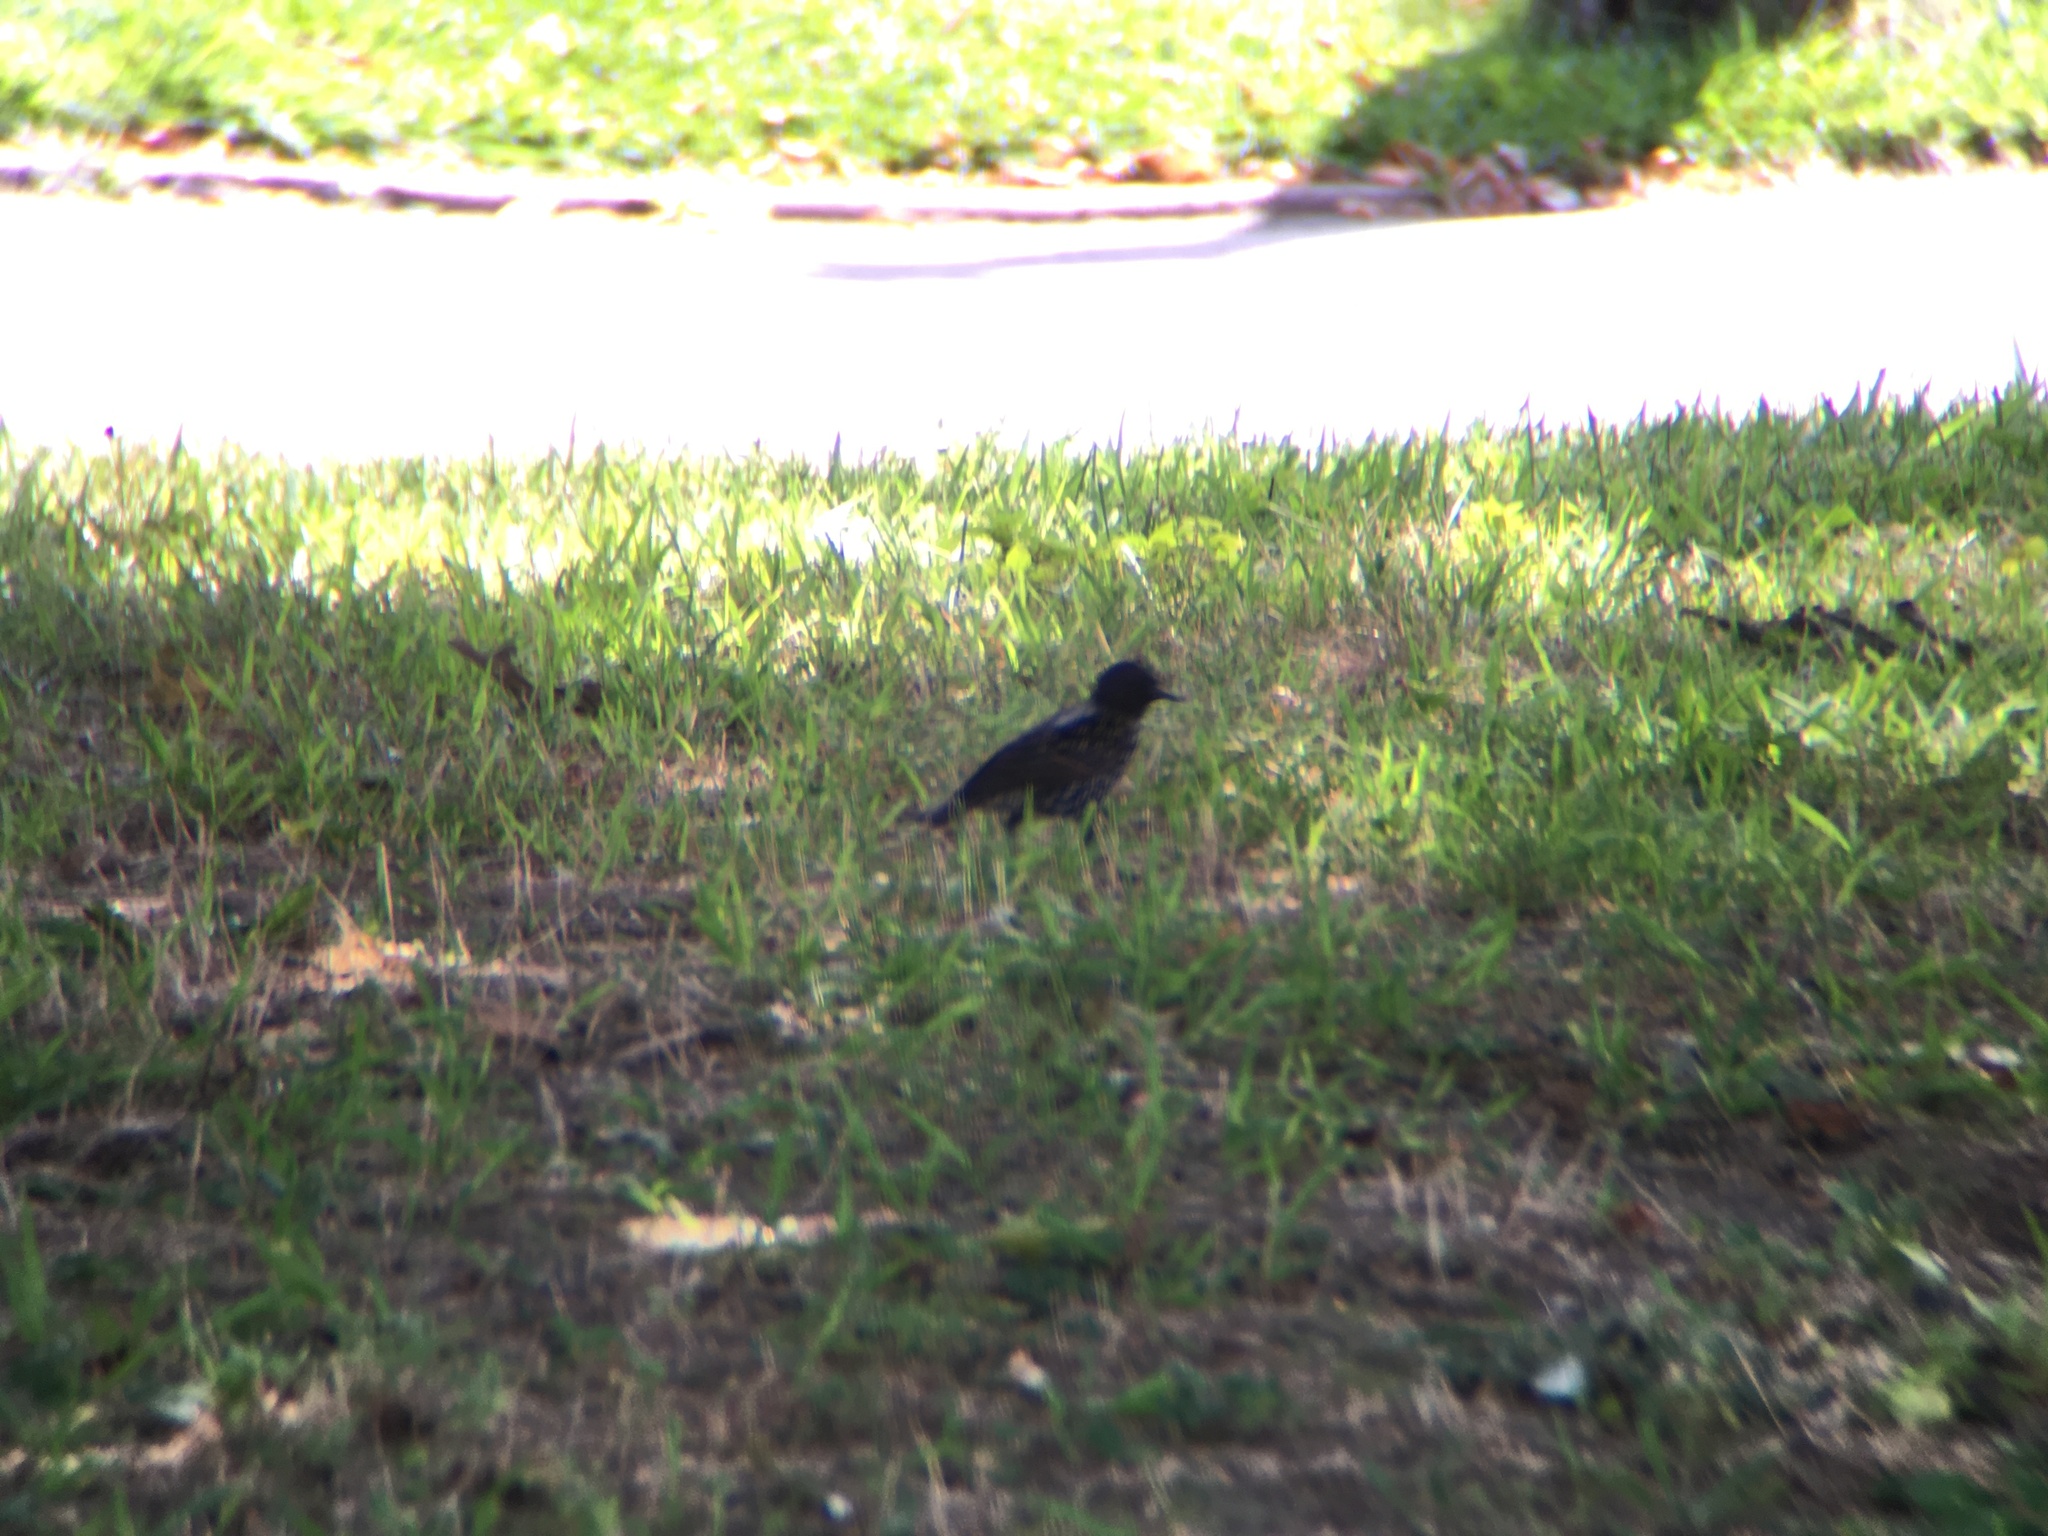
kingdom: Animalia
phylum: Chordata
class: Aves
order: Passeriformes
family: Sturnidae
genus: Sturnus
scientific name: Sturnus vulgaris
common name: Common starling
